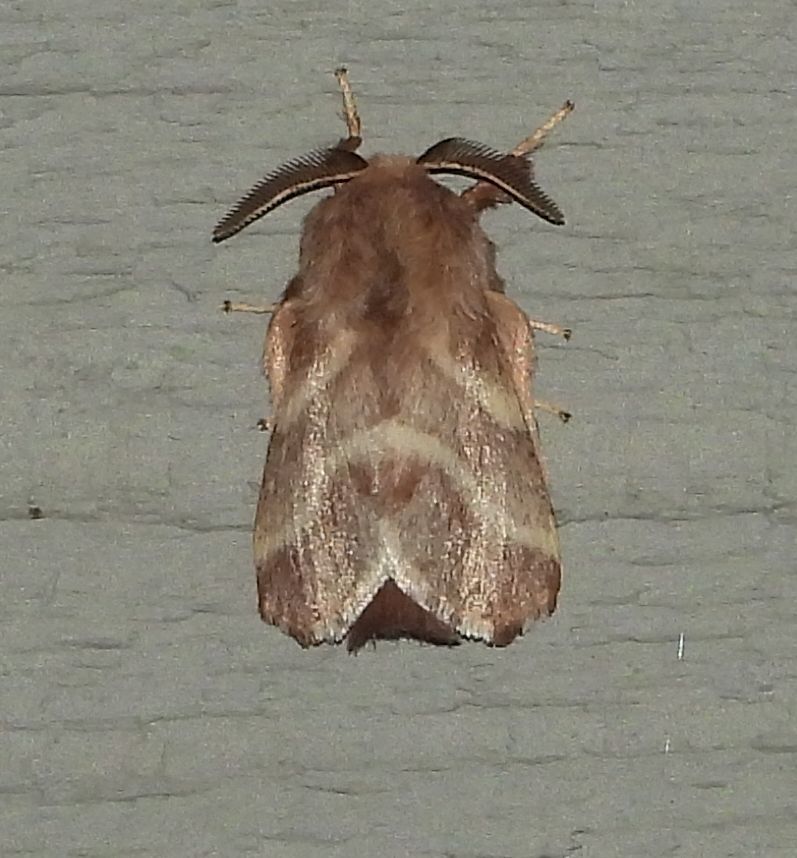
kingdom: Animalia
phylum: Arthropoda
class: Insecta
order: Lepidoptera
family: Lasiocampidae
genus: Malacosoma
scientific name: Malacosoma americana
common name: Eastern tent caterpillar moth
